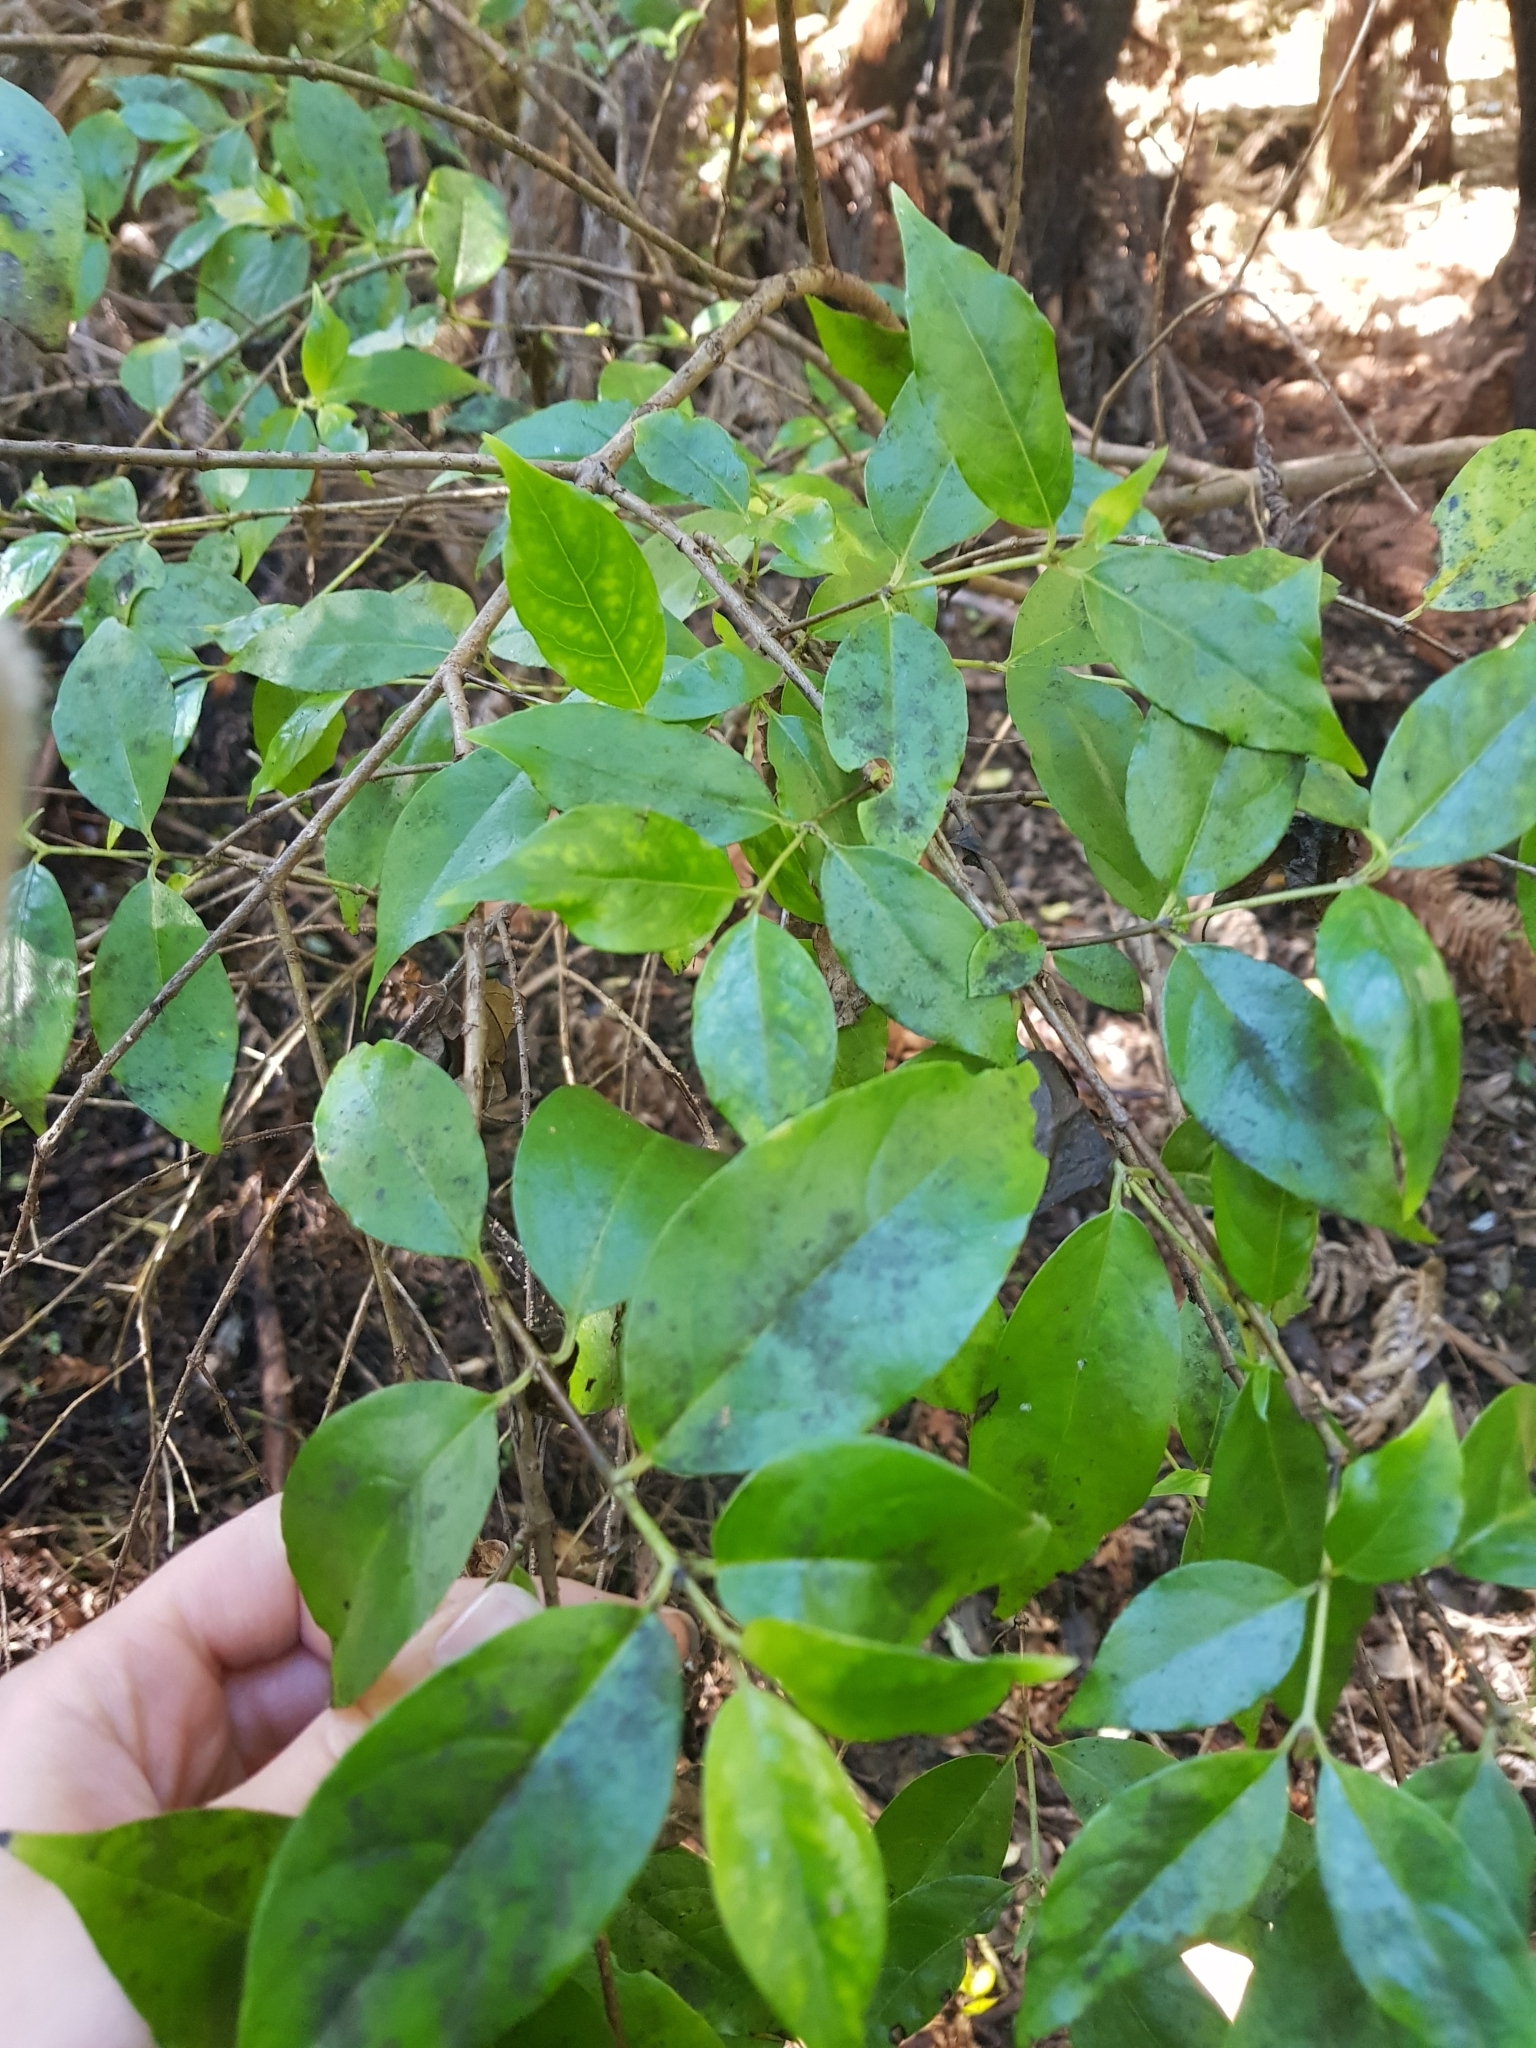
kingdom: Plantae
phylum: Tracheophyta
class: Magnoliopsida
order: Gentianales
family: Loganiaceae
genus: Geniostoma
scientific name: Geniostoma ligustrifolium
